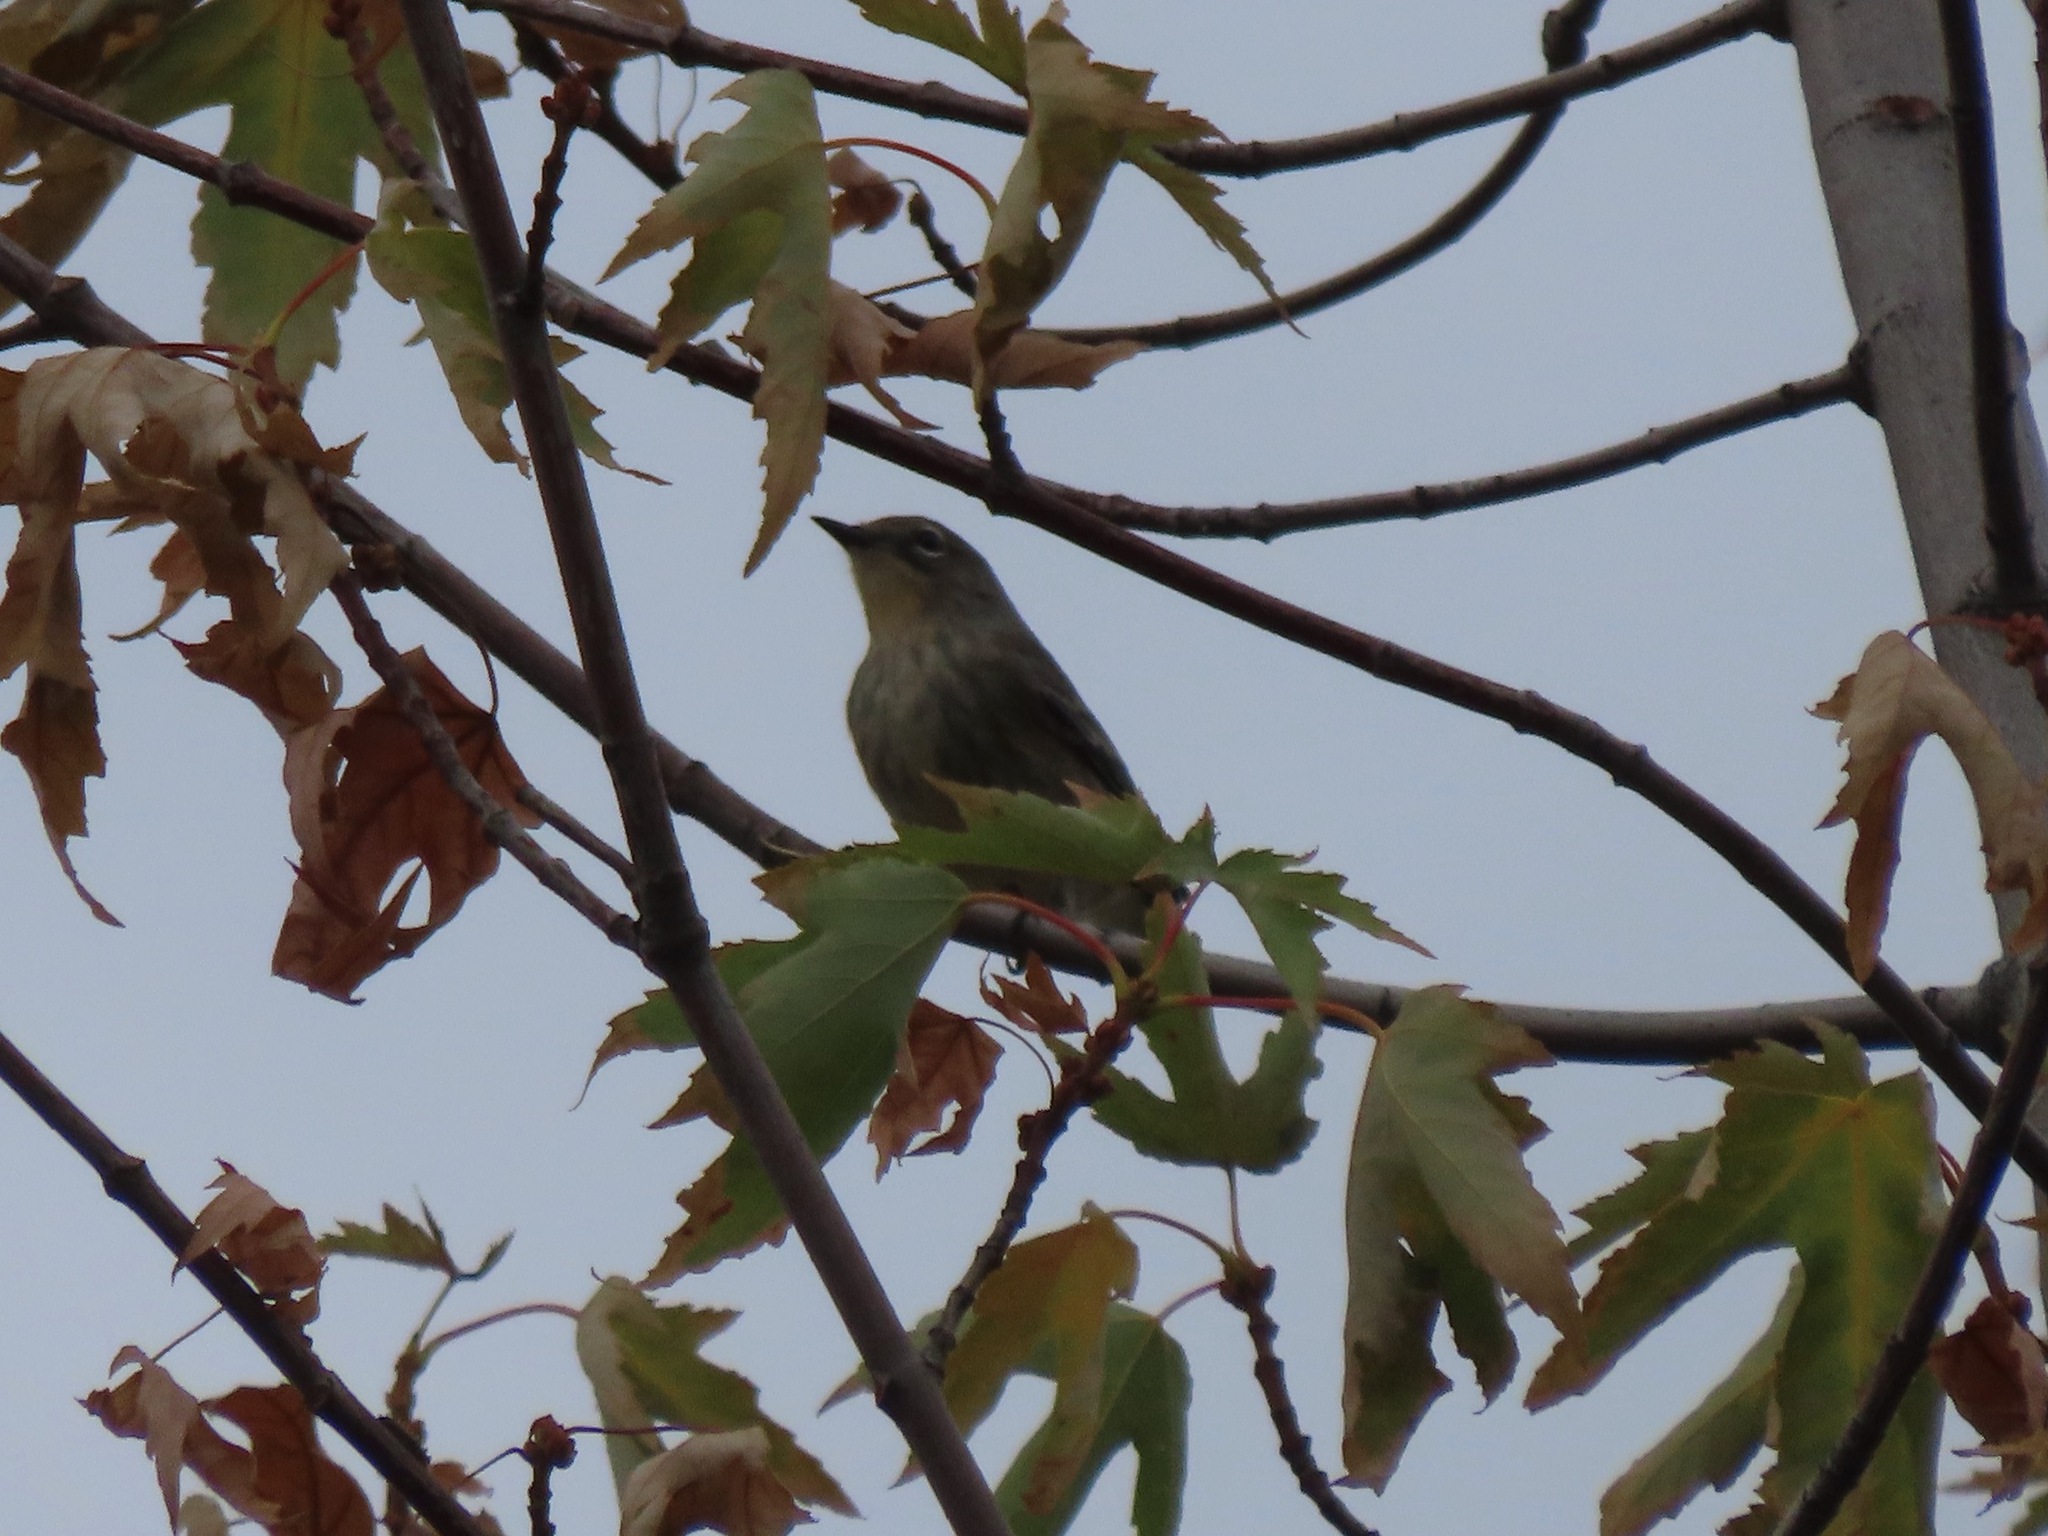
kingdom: Animalia
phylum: Chordata
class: Aves
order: Passeriformes
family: Parulidae
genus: Setophaga
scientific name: Setophaga coronata
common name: Myrtle warbler
